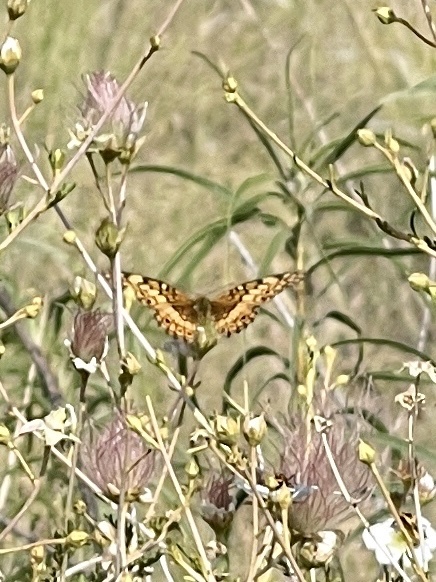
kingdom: Animalia
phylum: Arthropoda
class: Insecta
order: Lepidoptera
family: Nymphalidae
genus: Euptoieta
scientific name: Euptoieta claudia
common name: Variegated fritillary
